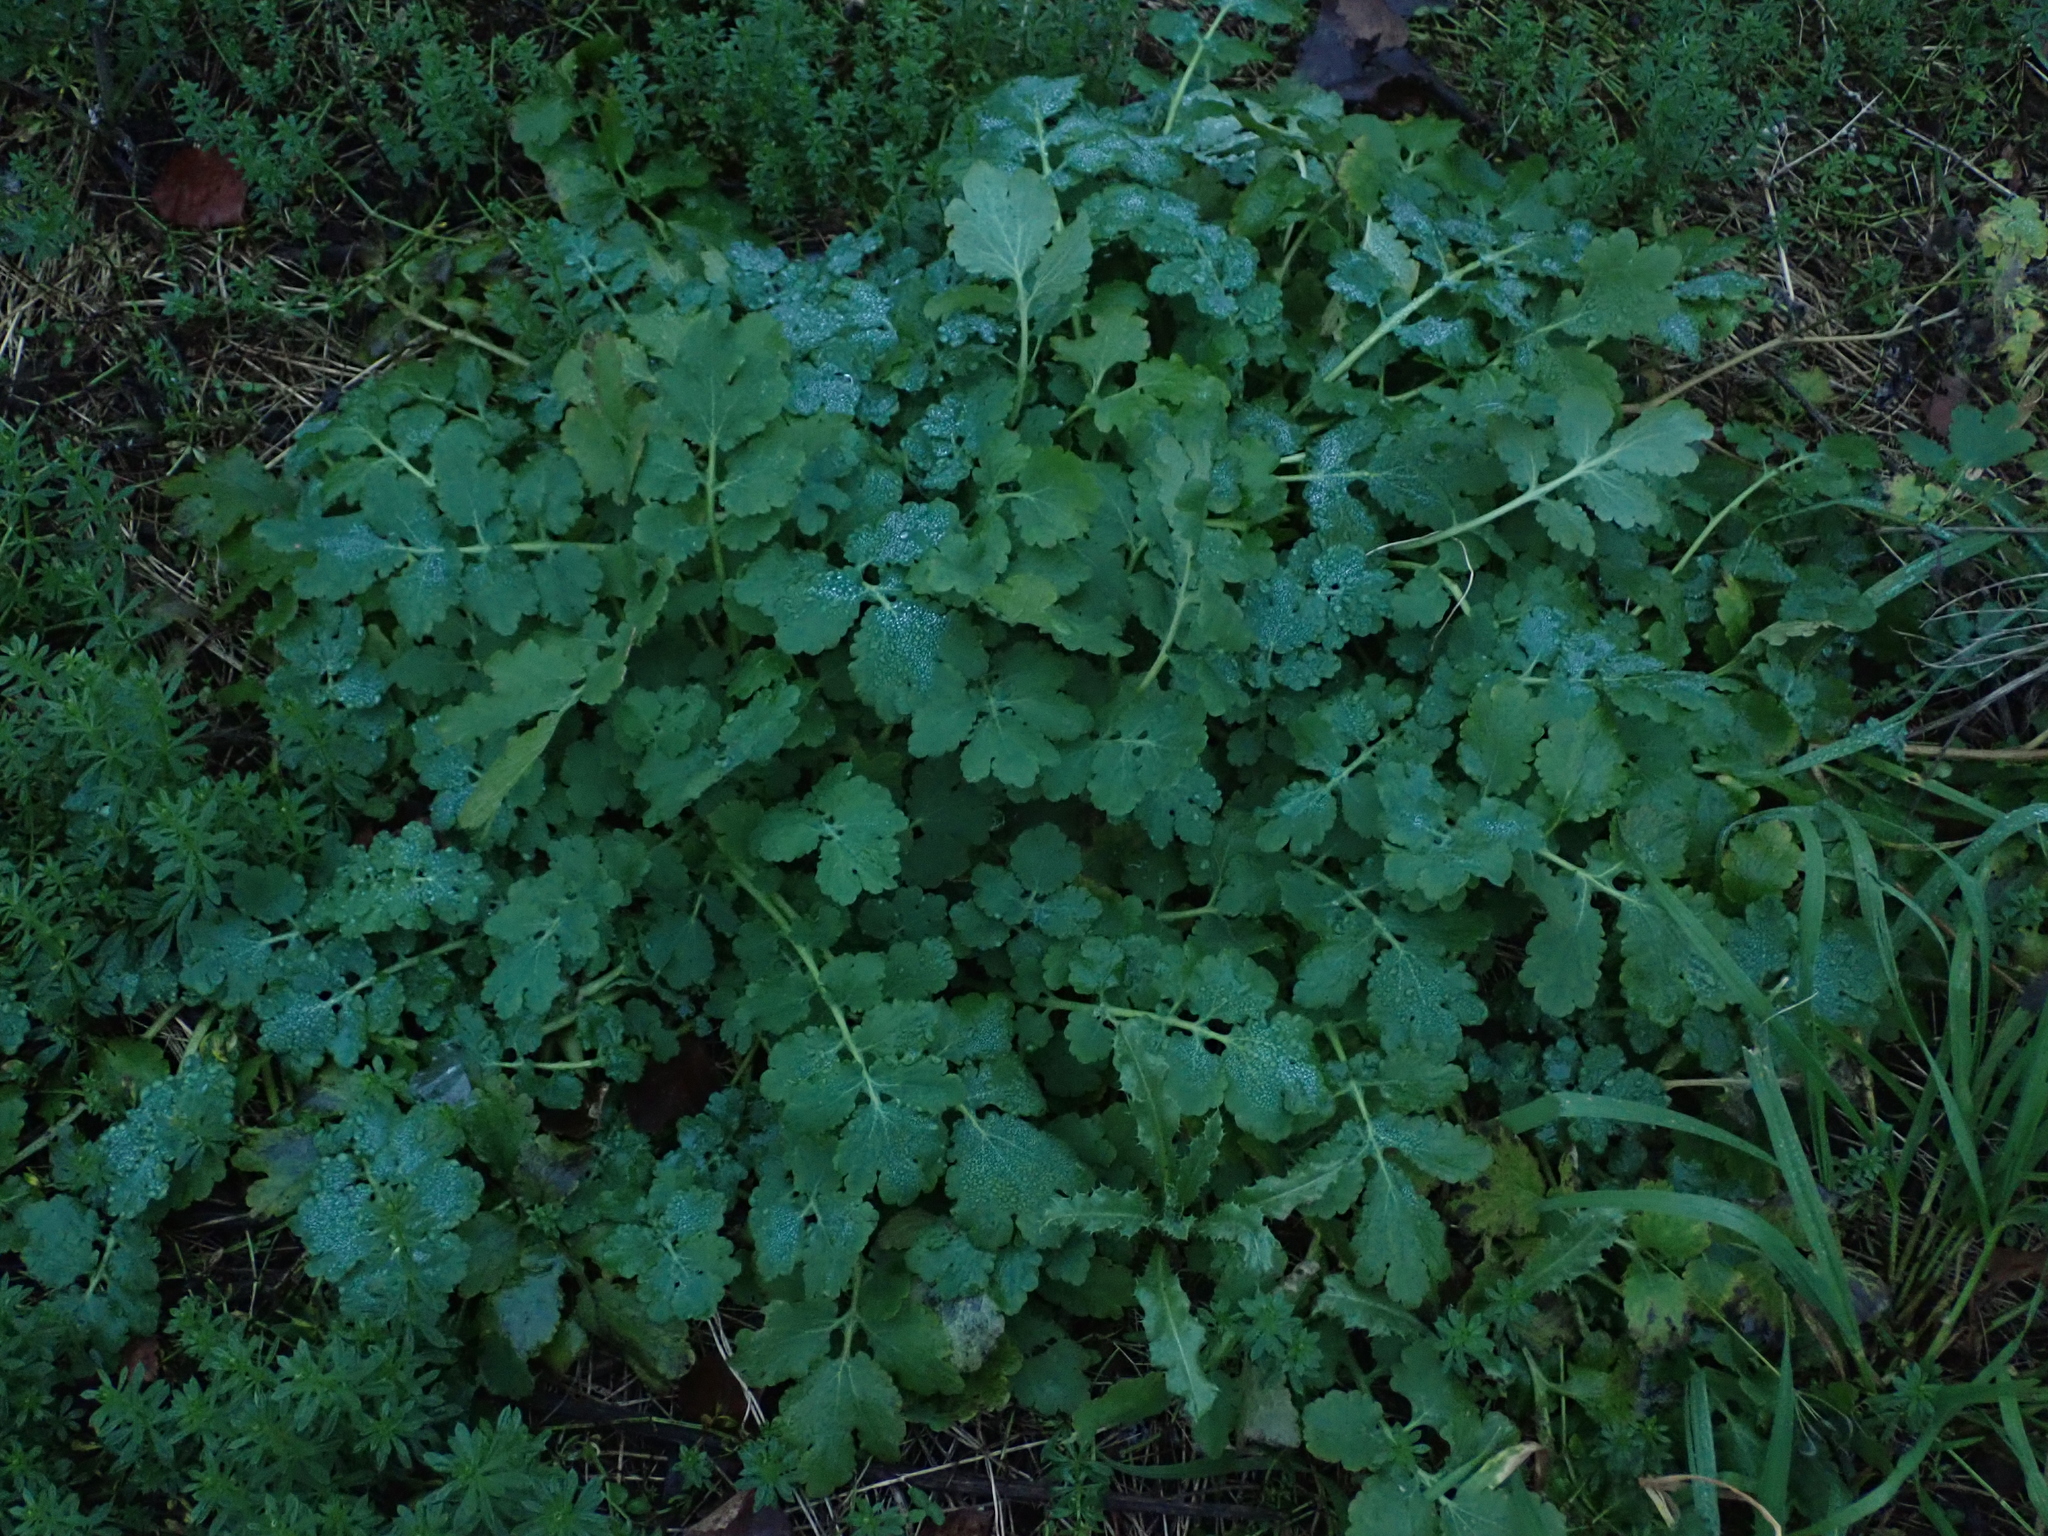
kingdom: Plantae
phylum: Tracheophyta
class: Magnoliopsida
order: Ranunculales
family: Papaveraceae
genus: Chelidonium
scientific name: Chelidonium majus
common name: Greater celandine
